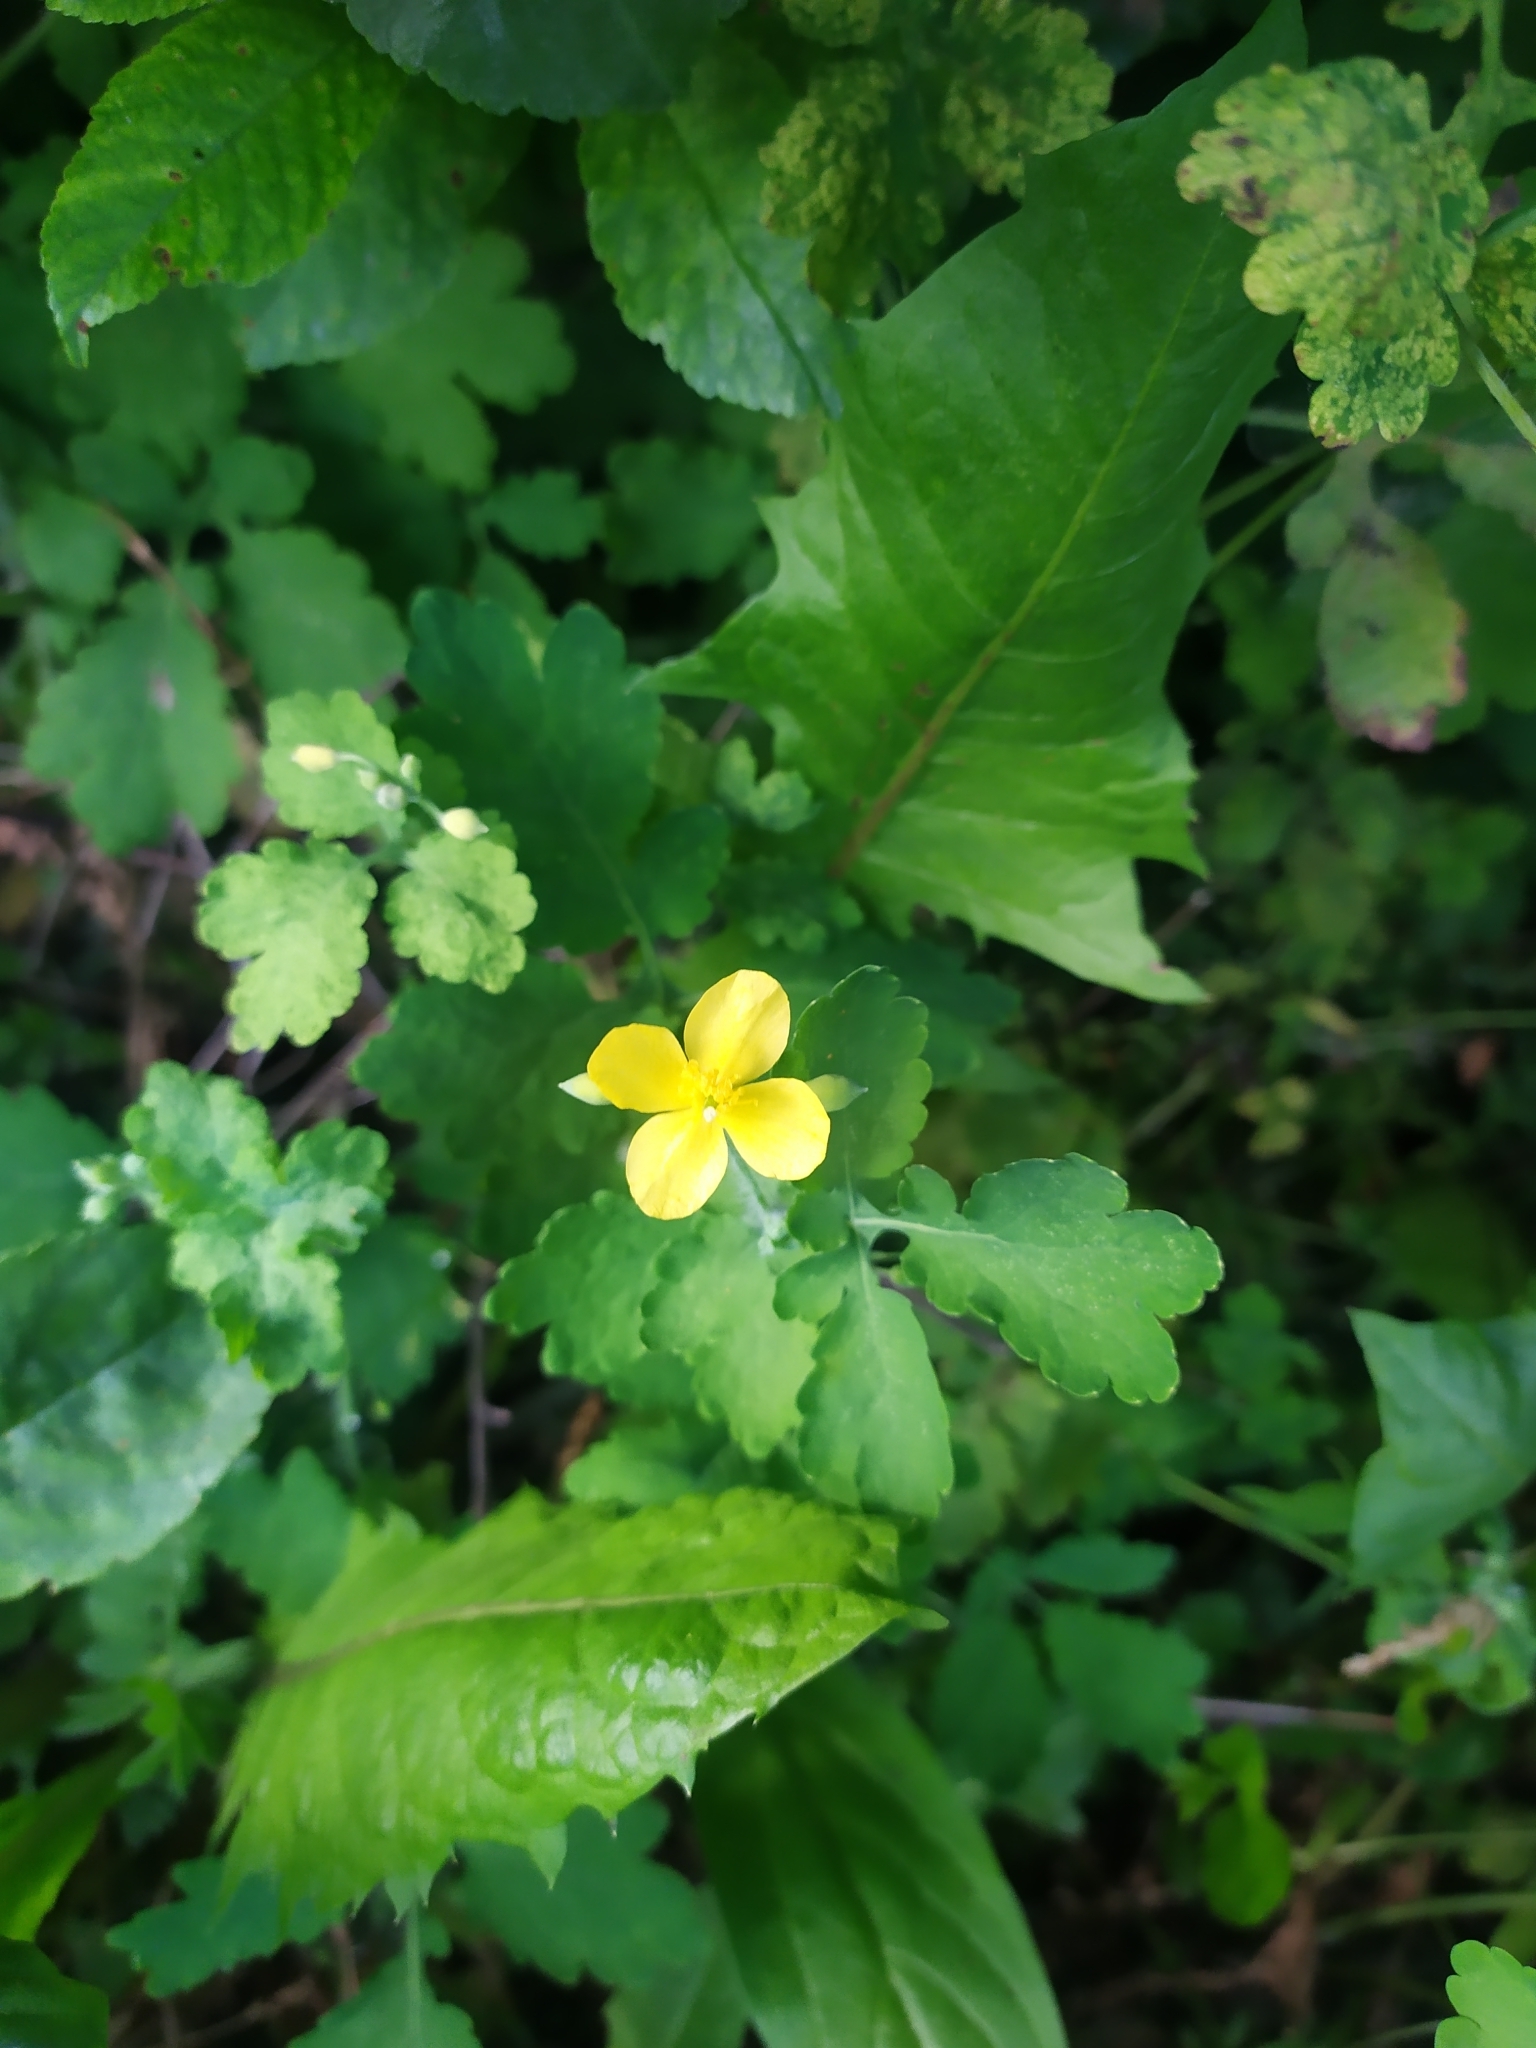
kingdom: Plantae
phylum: Tracheophyta
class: Magnoliopsida
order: Ranunculales
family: Papaveraceae
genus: Chelidonium
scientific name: Chelidonium majus
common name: Greater celandine
